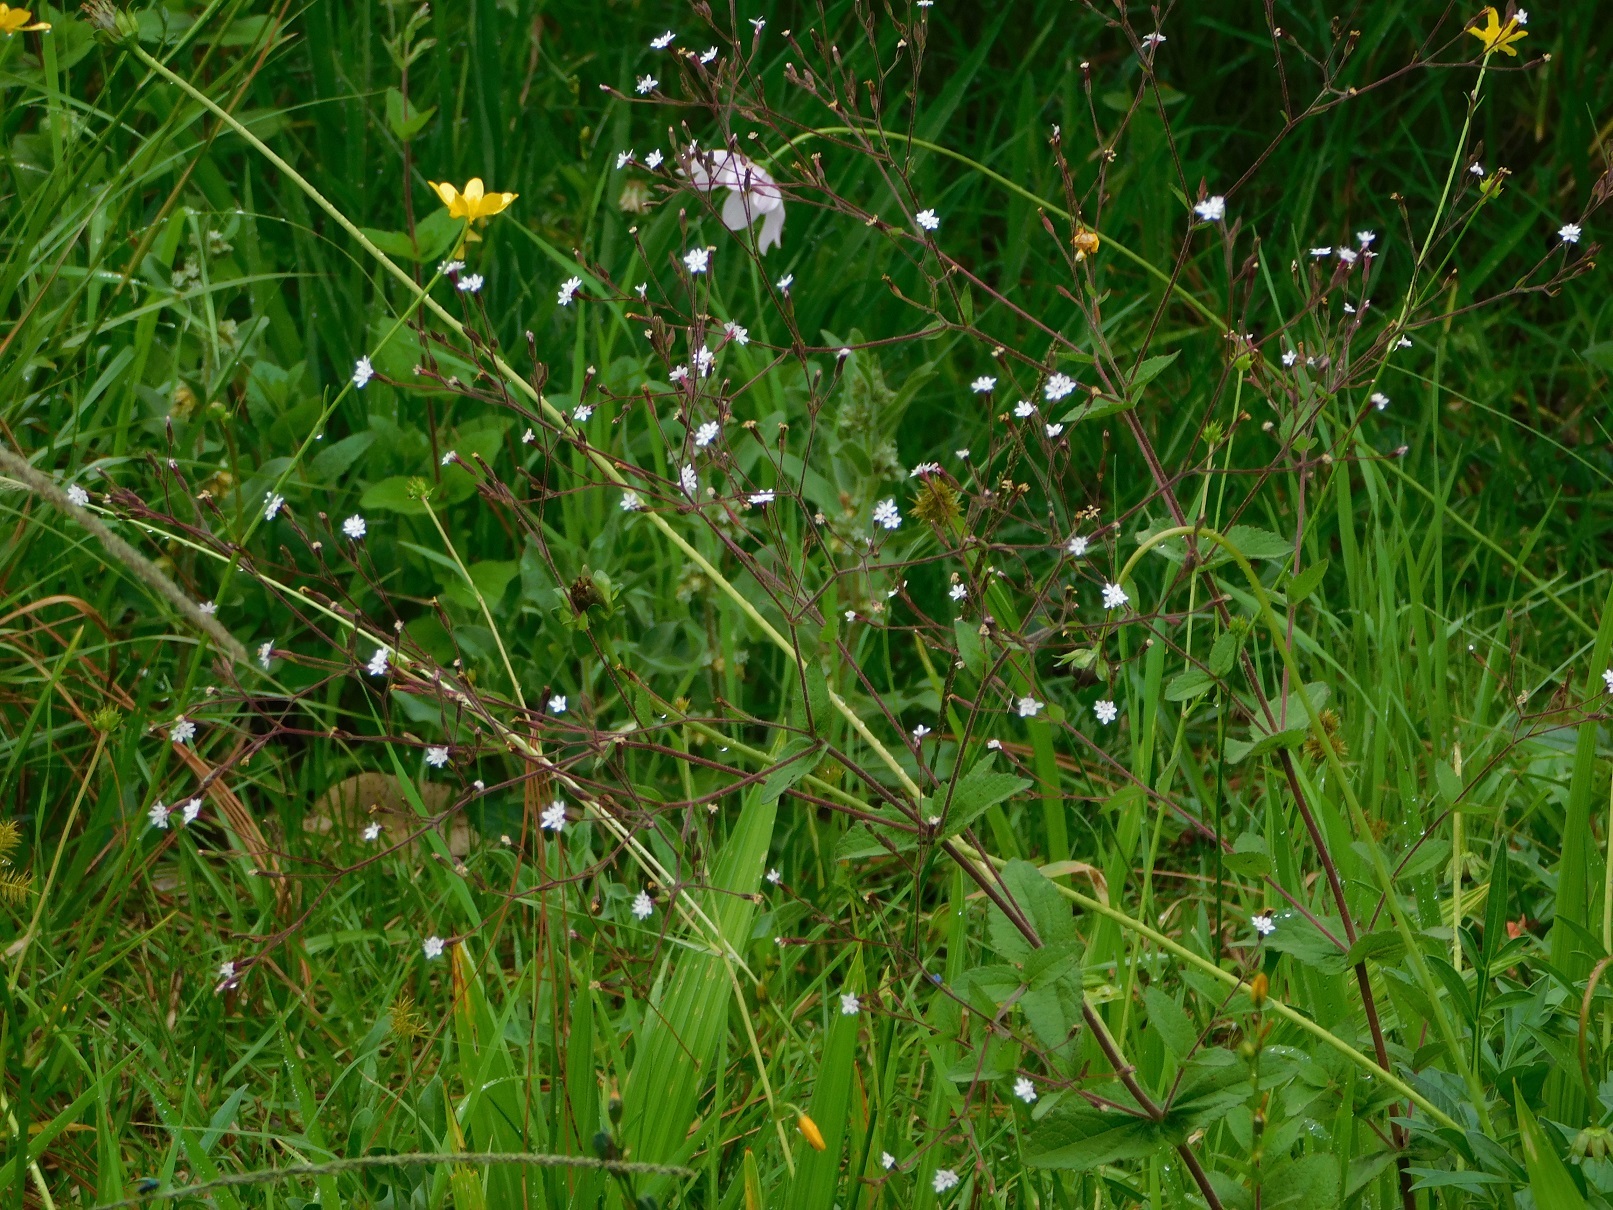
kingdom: Plantae
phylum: Tracheophyta
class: Magnoliopsida
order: Asterales
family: Asteraceae
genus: Stevia
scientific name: Stevia elatior
